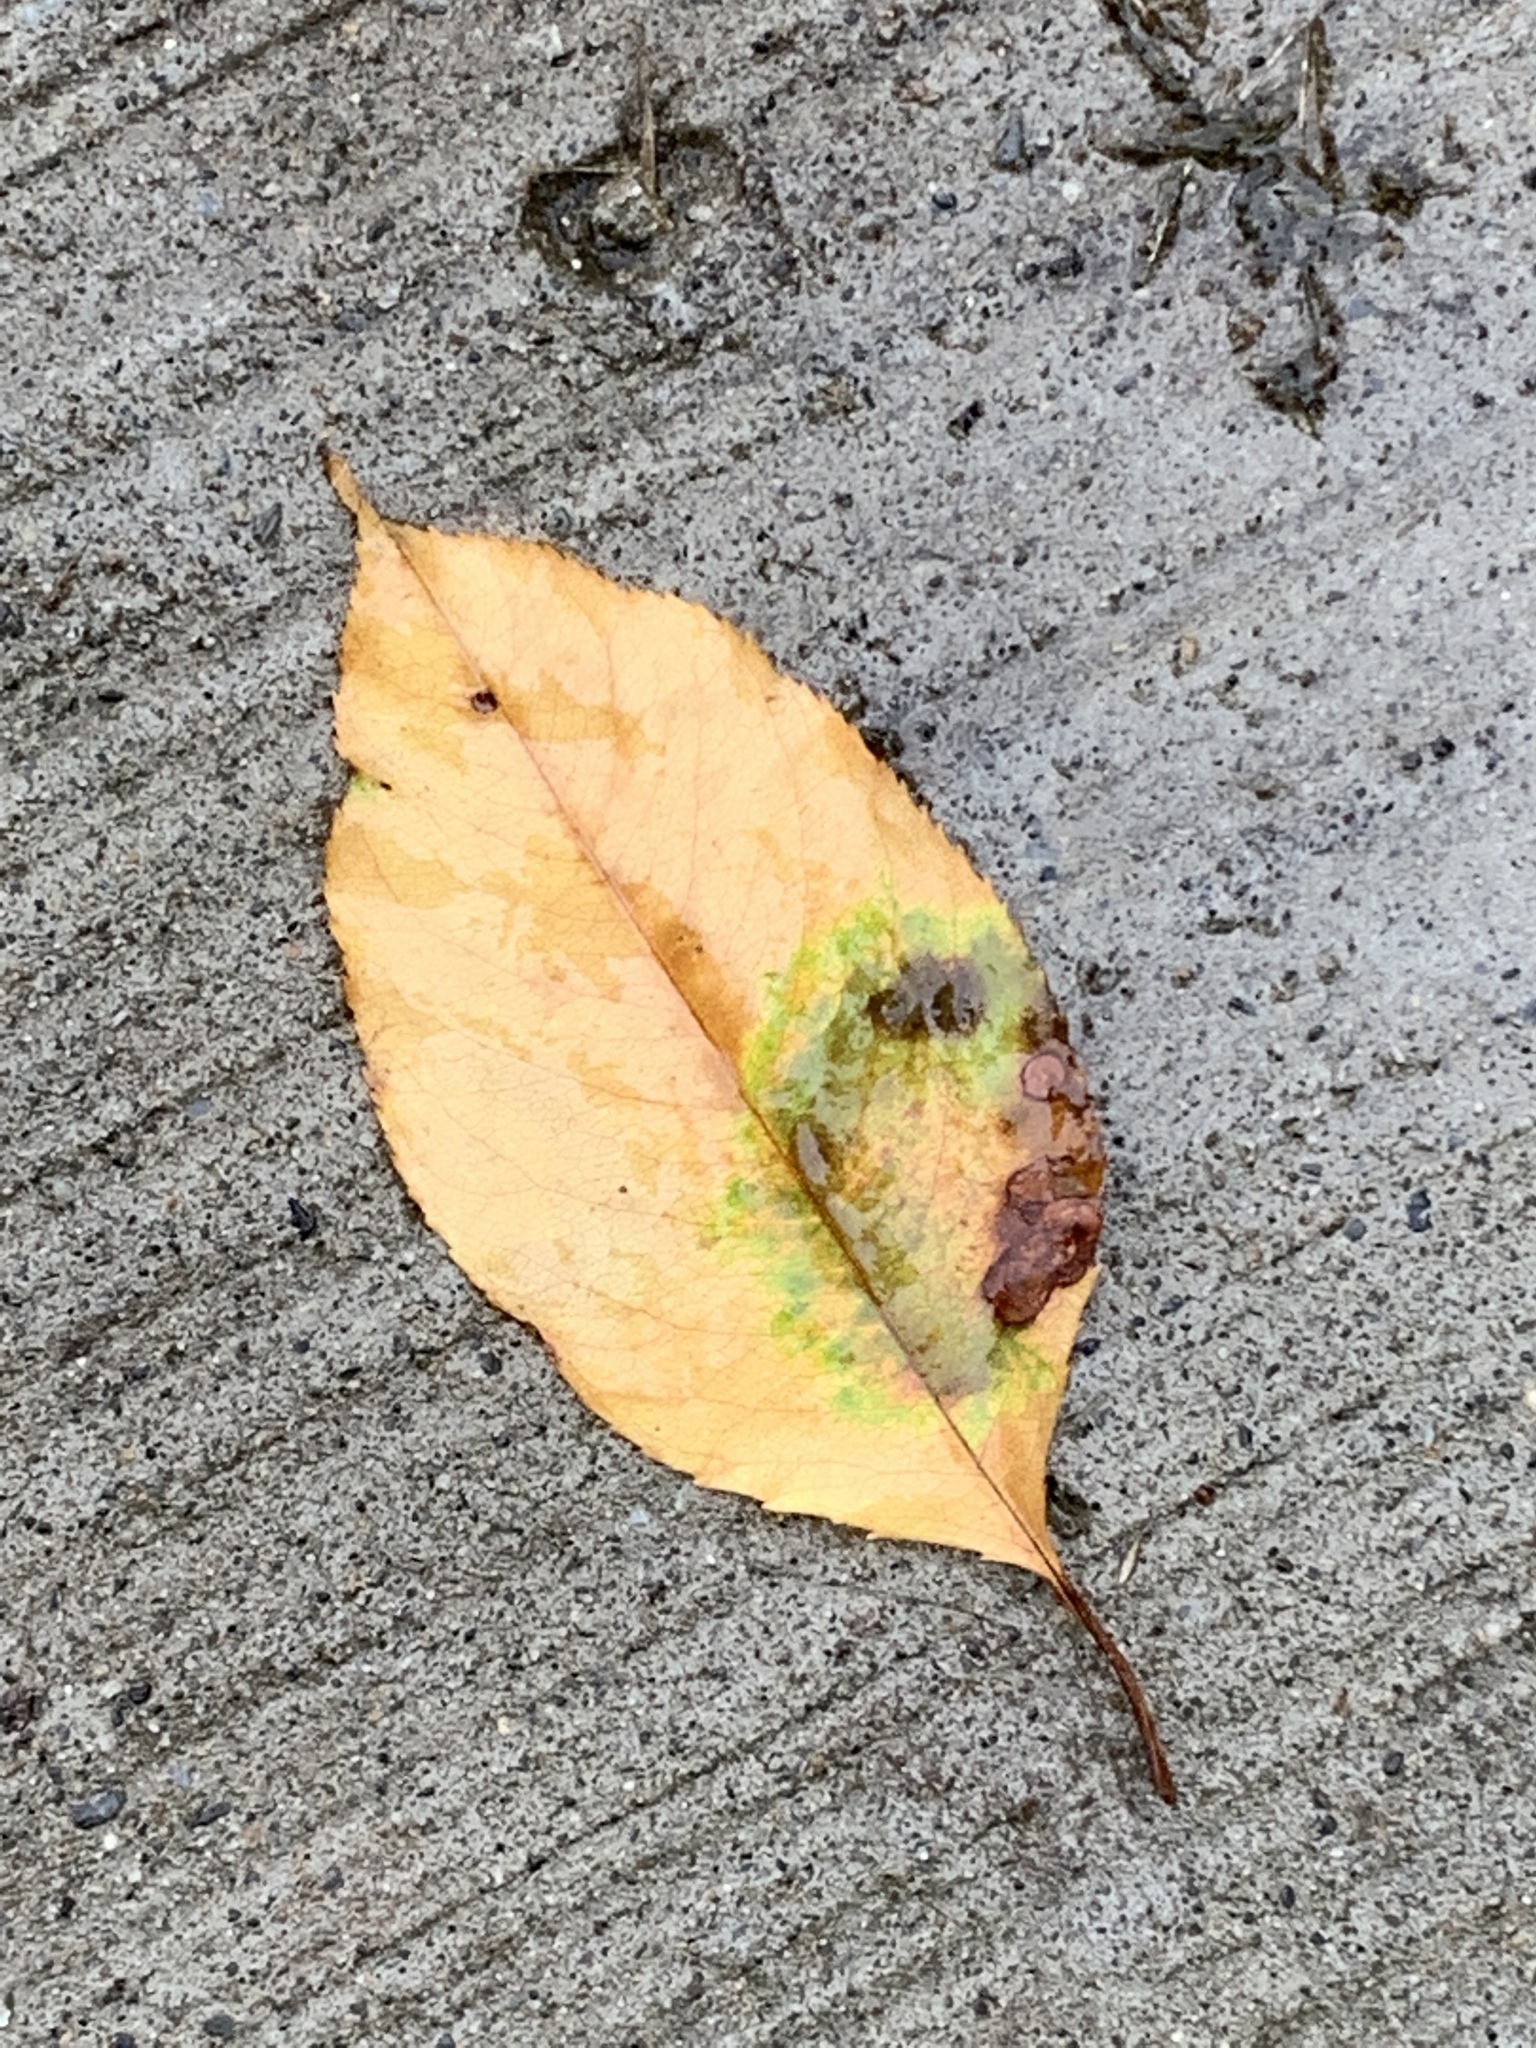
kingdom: Plantae
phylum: Tracheophyta
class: Magnoliopsida
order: Rosales
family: Rosaceae
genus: Prunus
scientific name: Prunus serotina
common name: Black cherry
